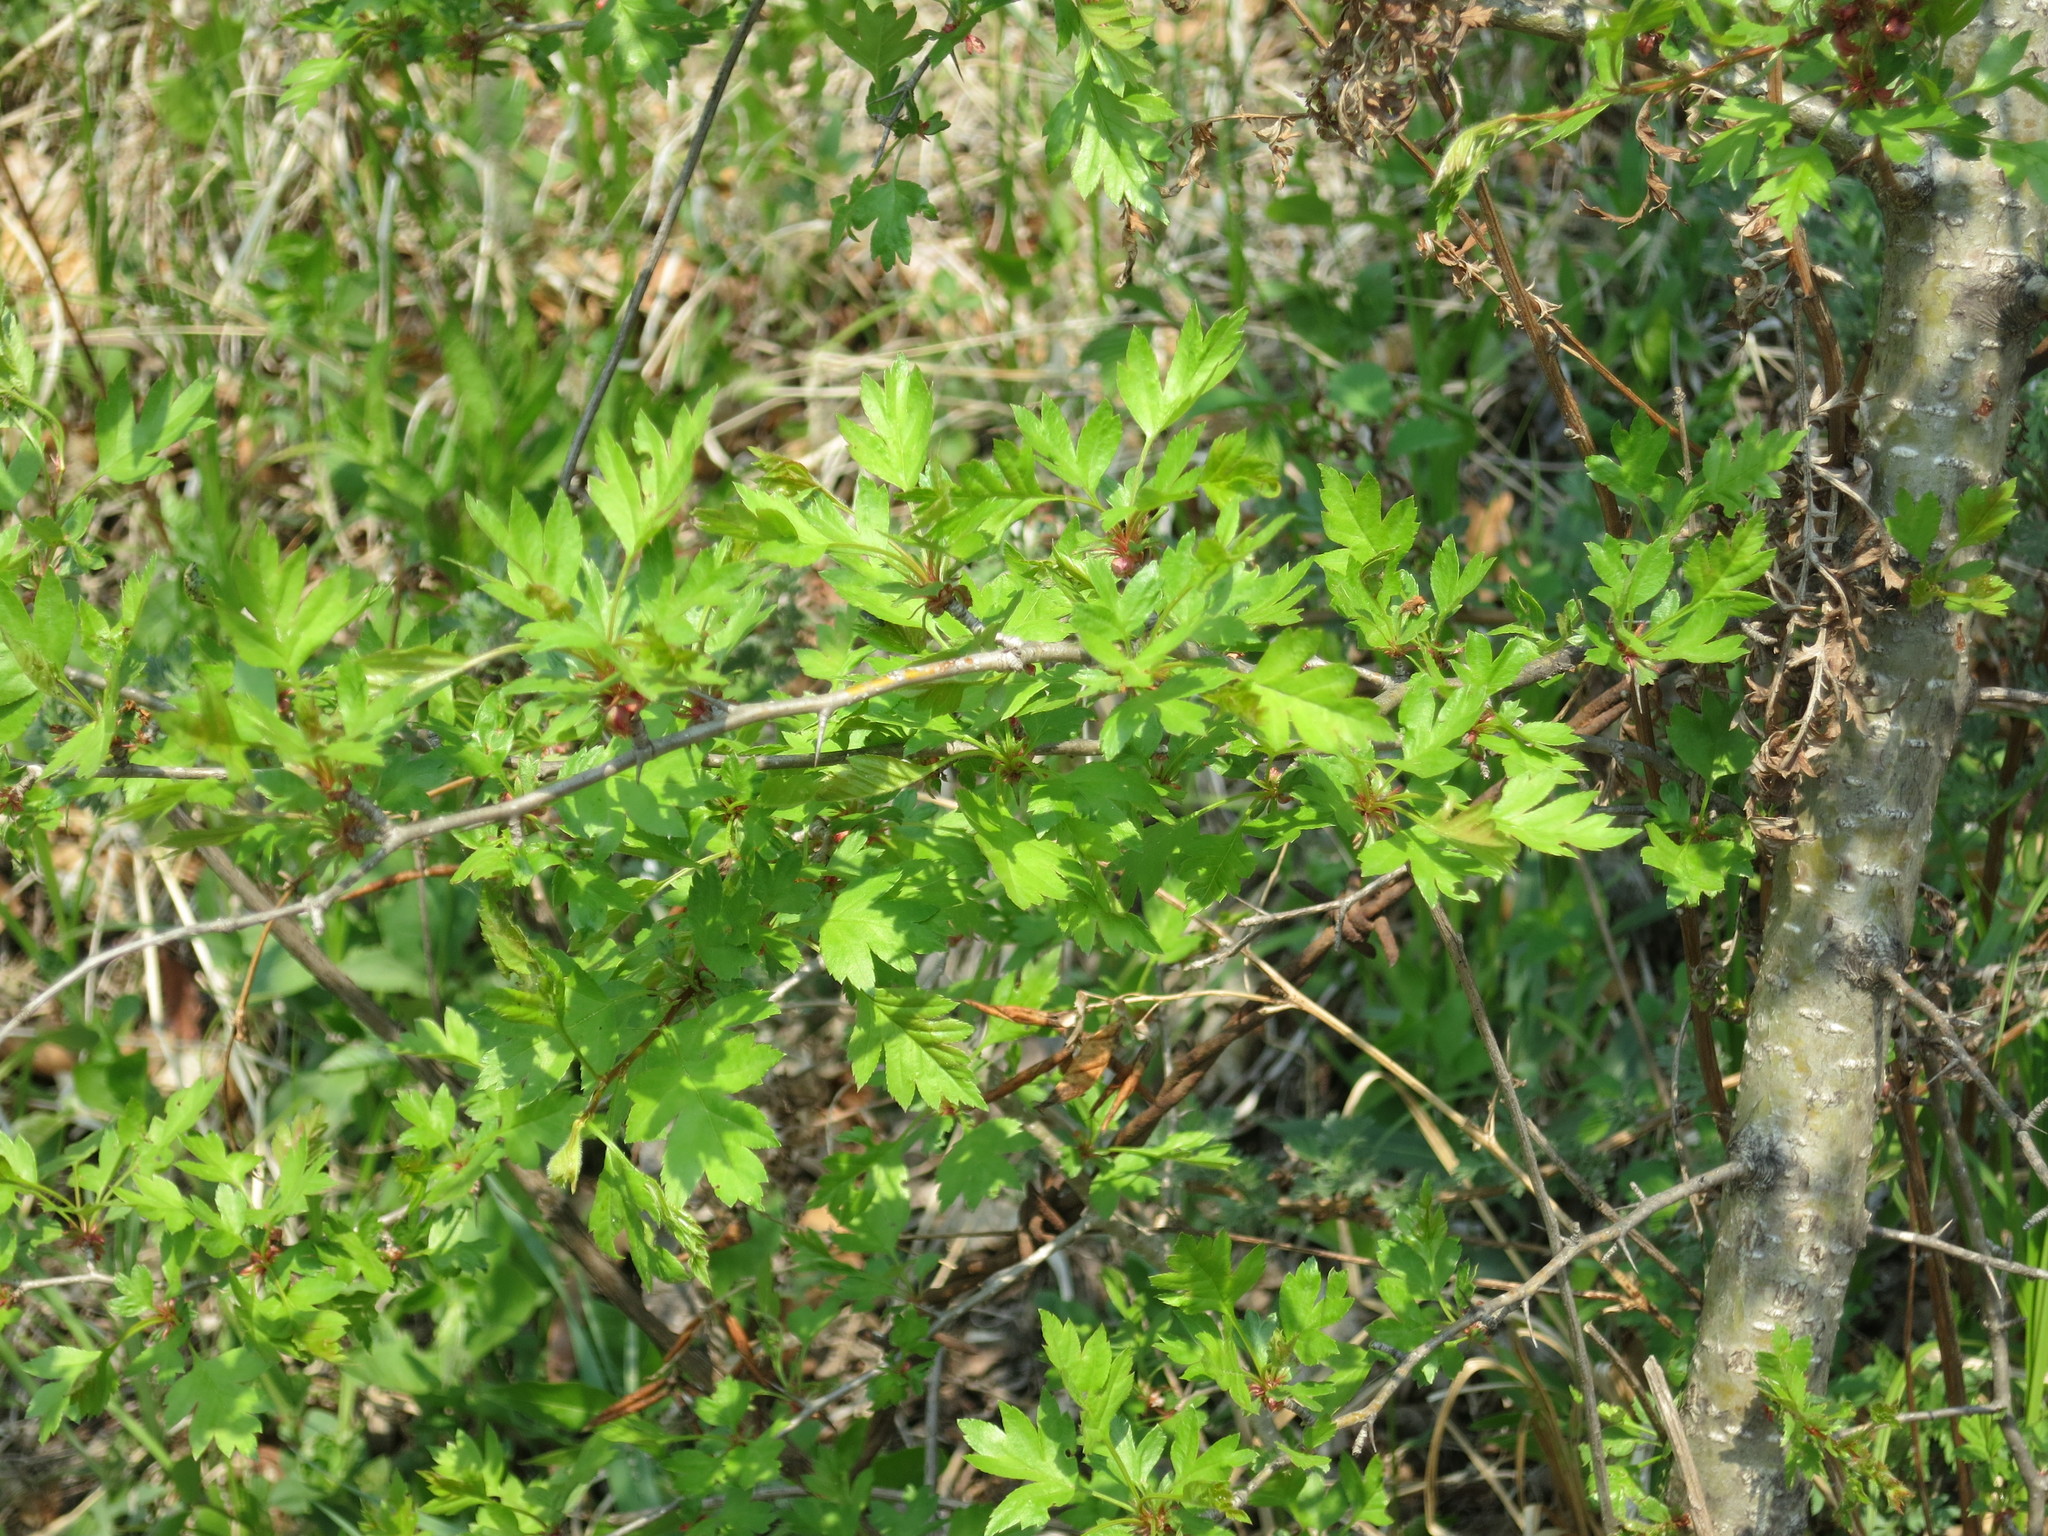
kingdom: Plantae
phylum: Tracheophyta
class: Magnoliopsida
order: Rosales
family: Rosaceae
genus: Crataegus
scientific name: Crataegus pinnatifida
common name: Chinese haw
